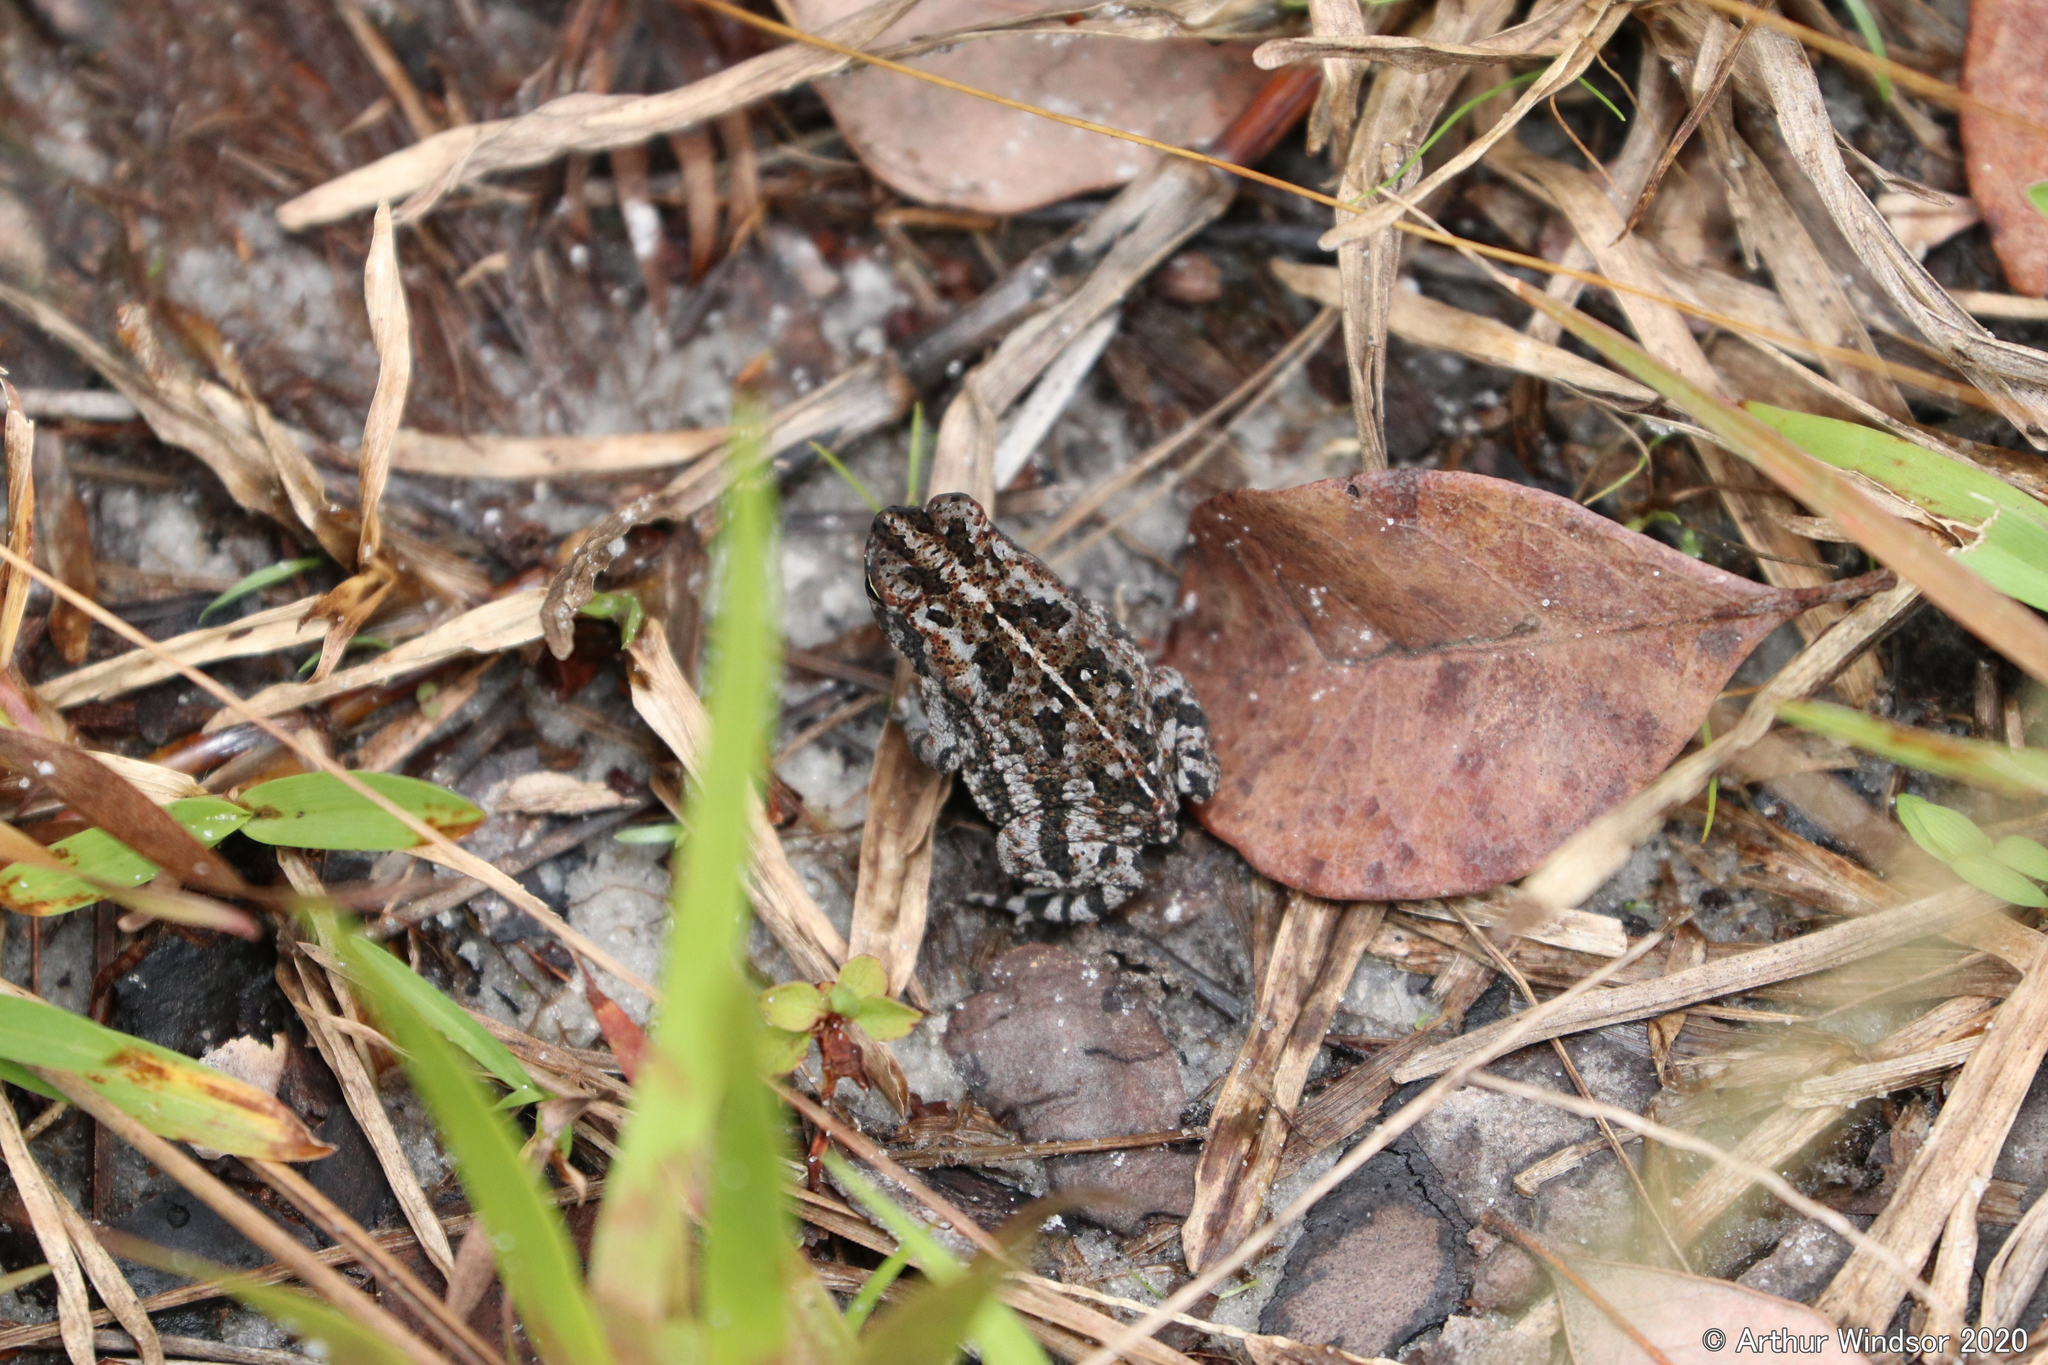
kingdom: Animalia
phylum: Chordata
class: Amphibia
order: Anura
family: Bufonidae
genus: Anaxyrus
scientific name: Anaxyrus quercicus
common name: Oak toad
